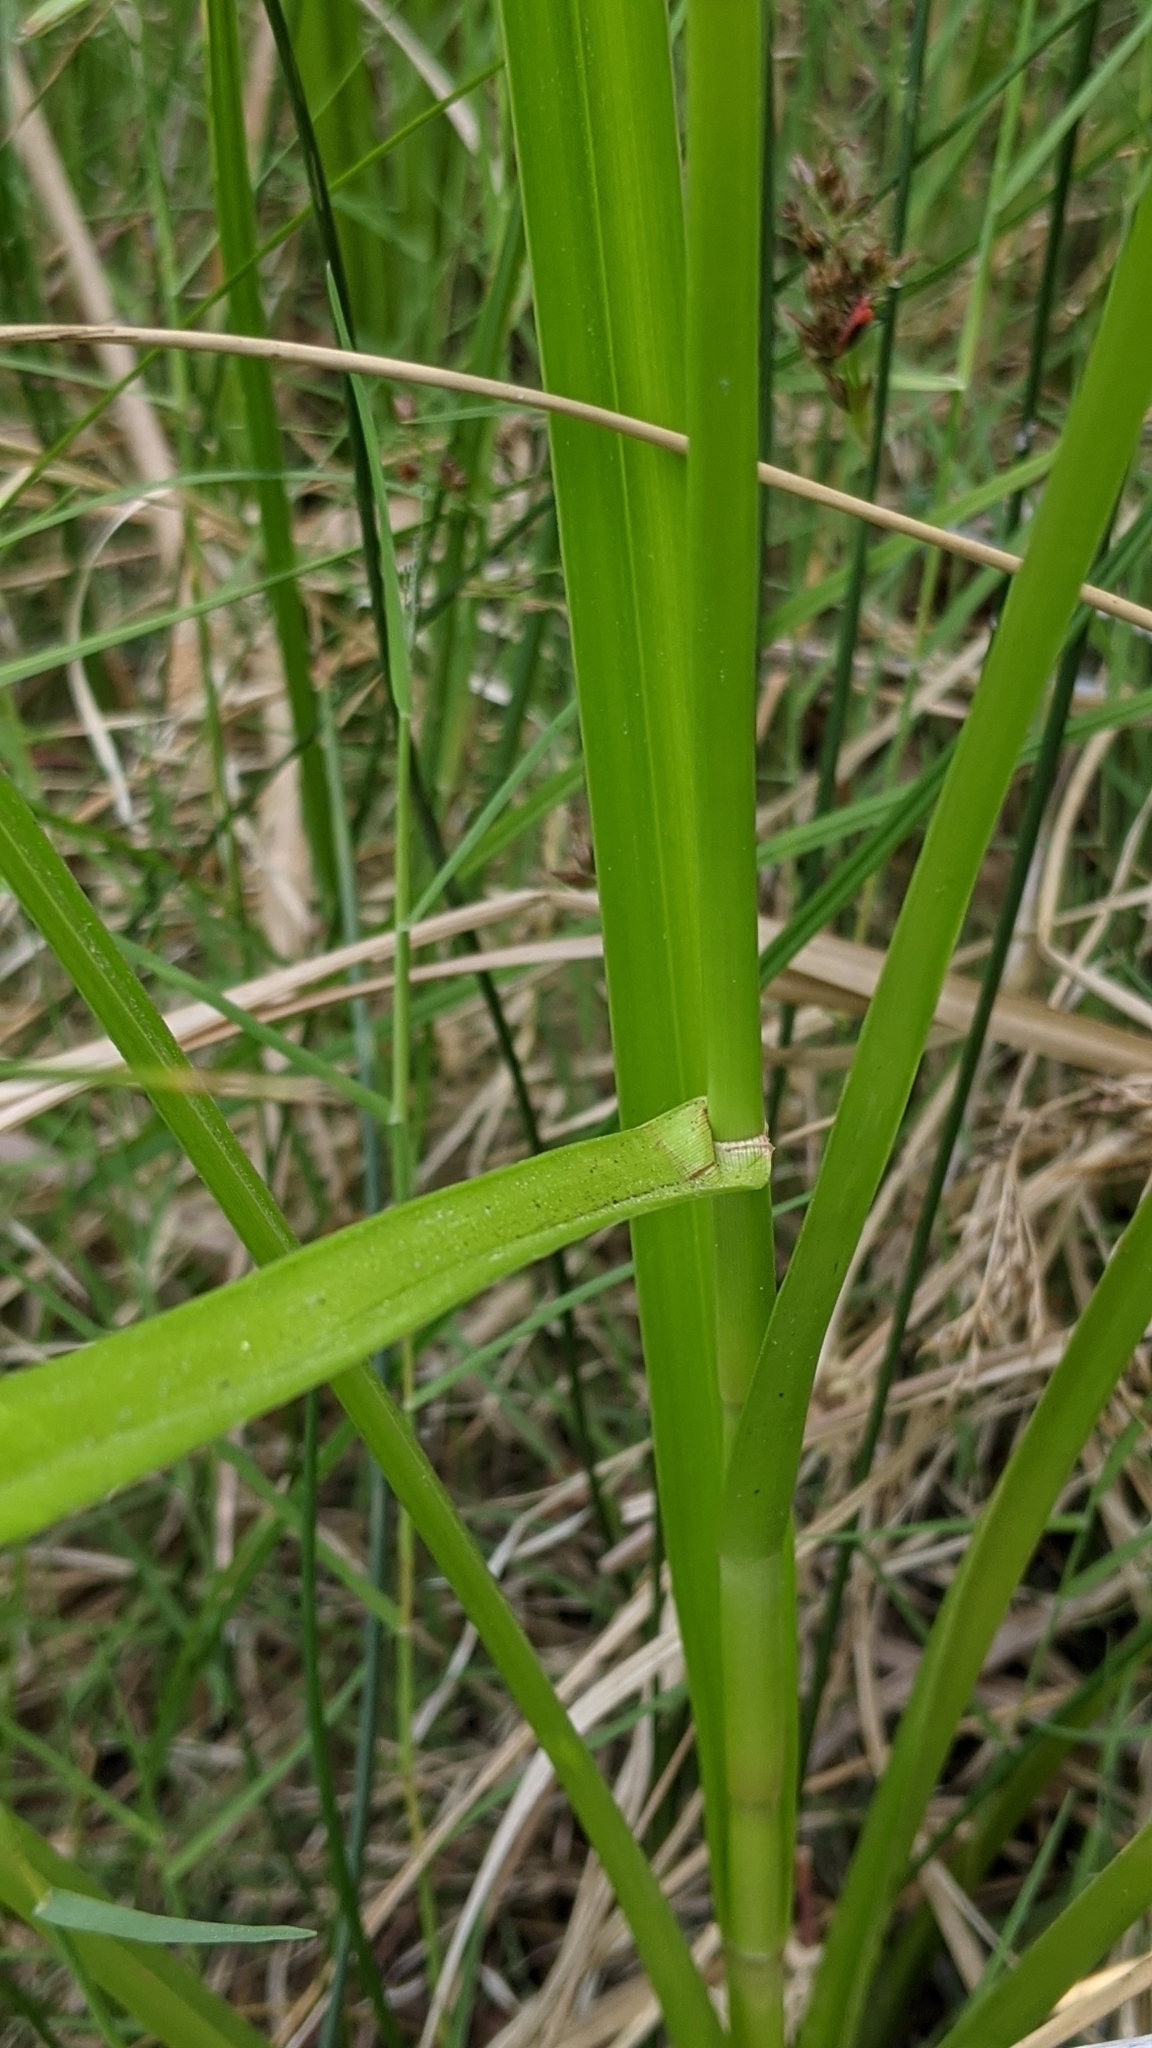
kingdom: Plantae
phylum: Tracheophyta
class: Liliopsida
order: Poales
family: Cyperaceae
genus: Scirpus
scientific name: Scirpus microcarpus
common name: Panicled bulrush
